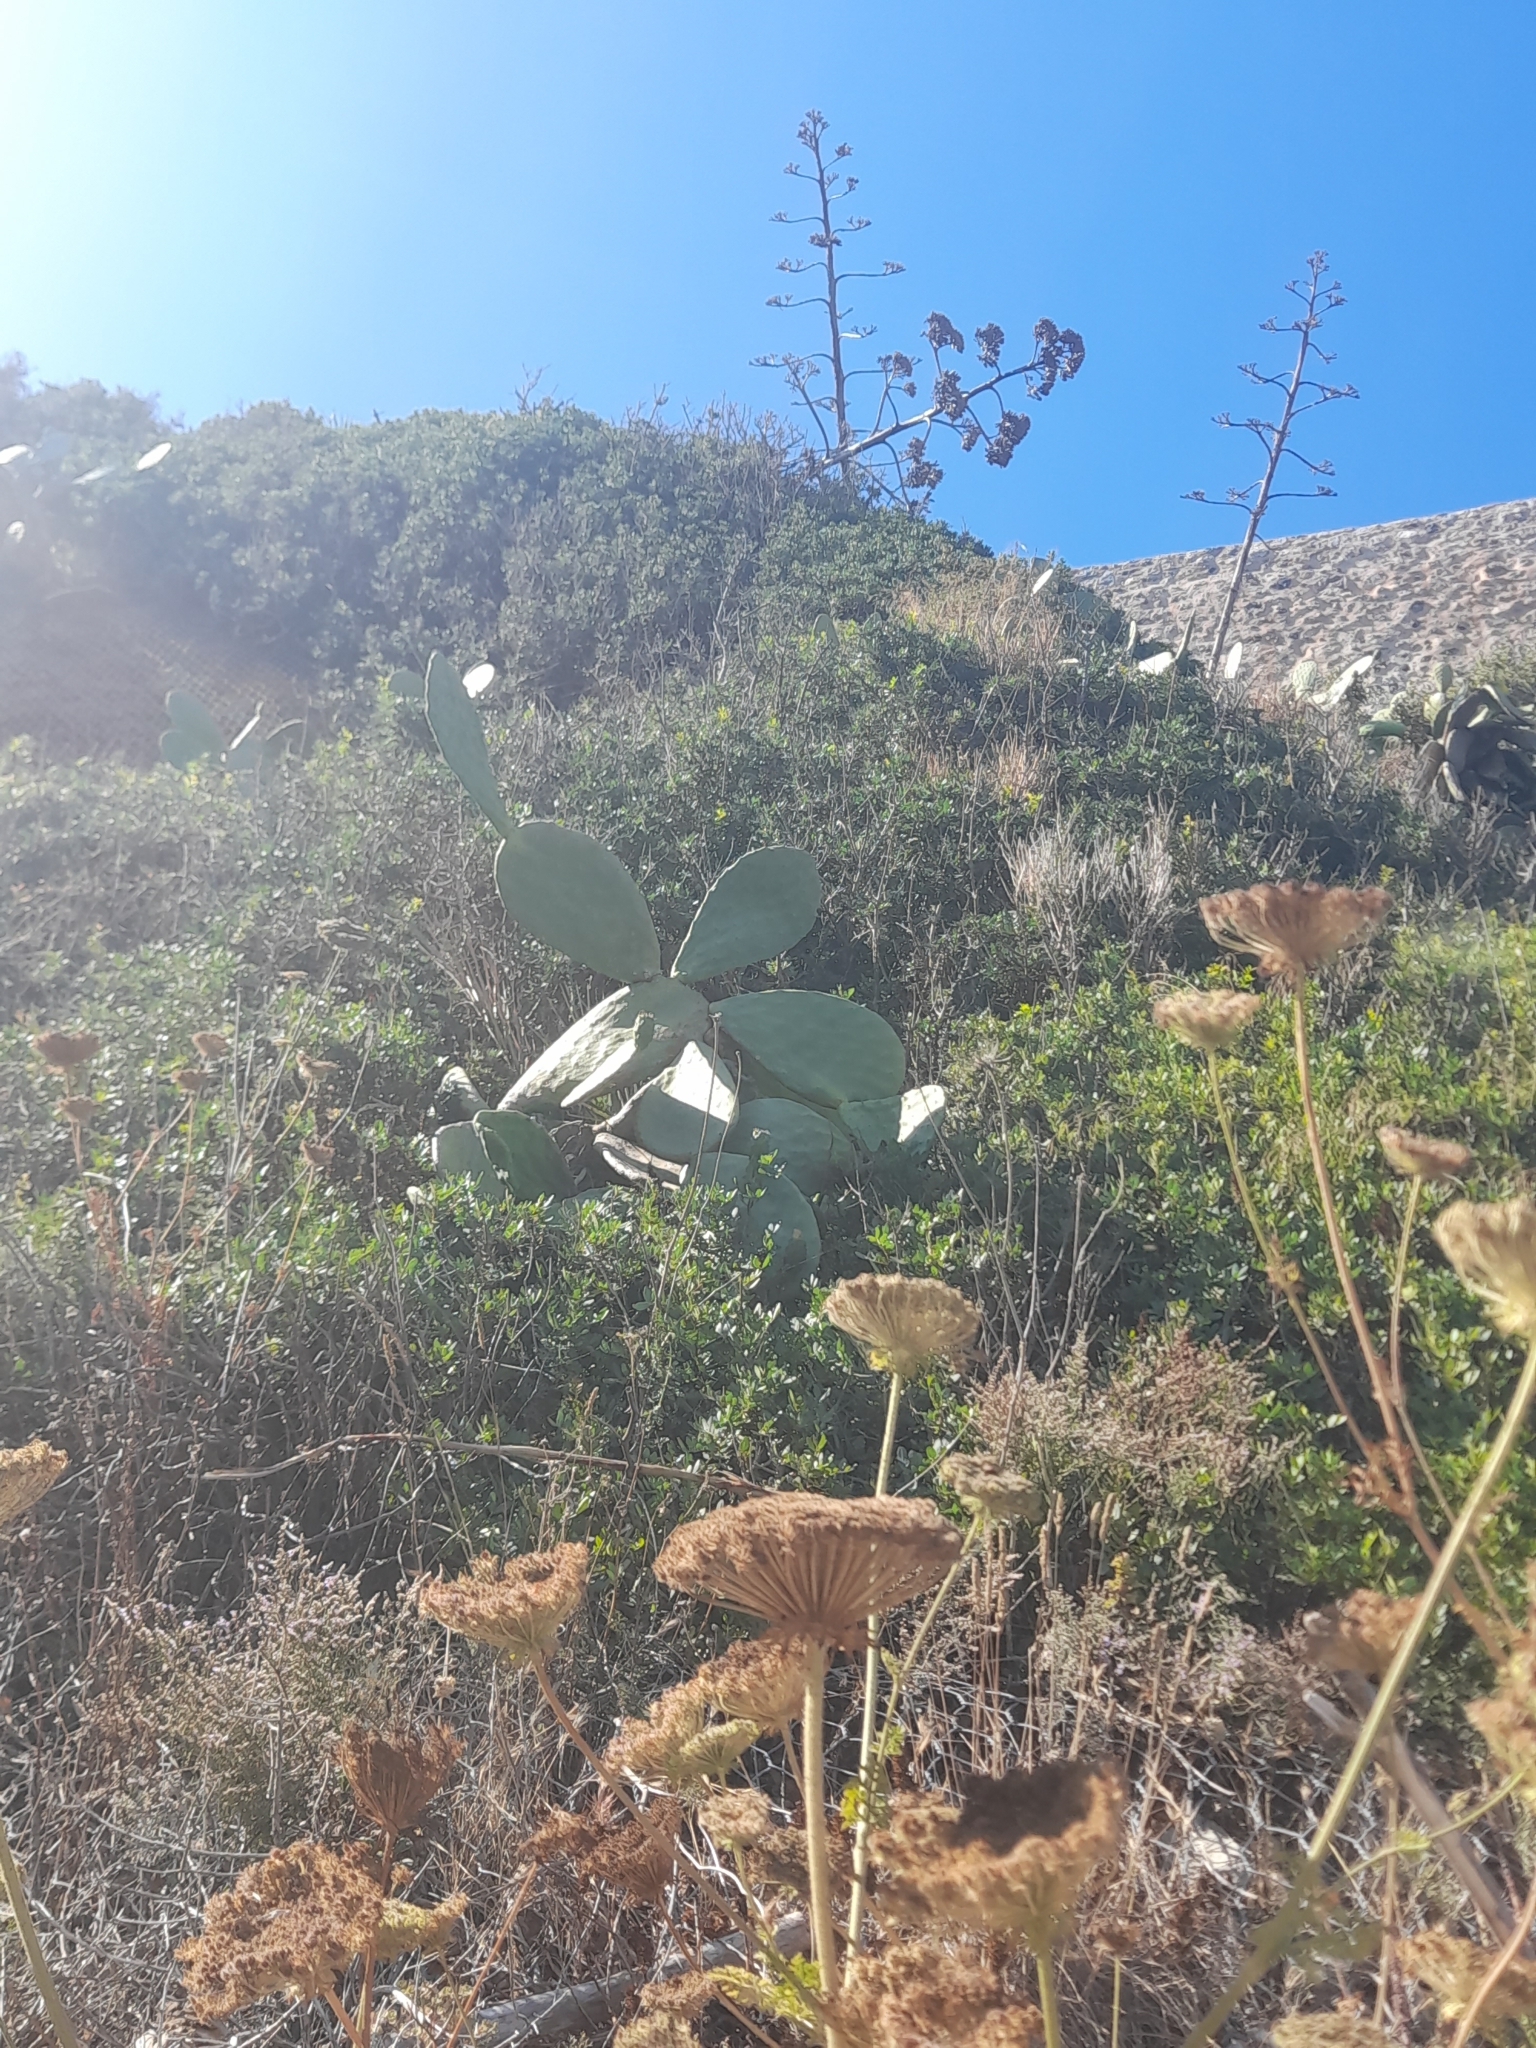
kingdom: Plantae
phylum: Tracheophyta
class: Magnoliopsida
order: Caryophyllales
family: Cactaceae
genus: Opuntia
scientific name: Opuntia ficus-indica
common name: Barbary fig
